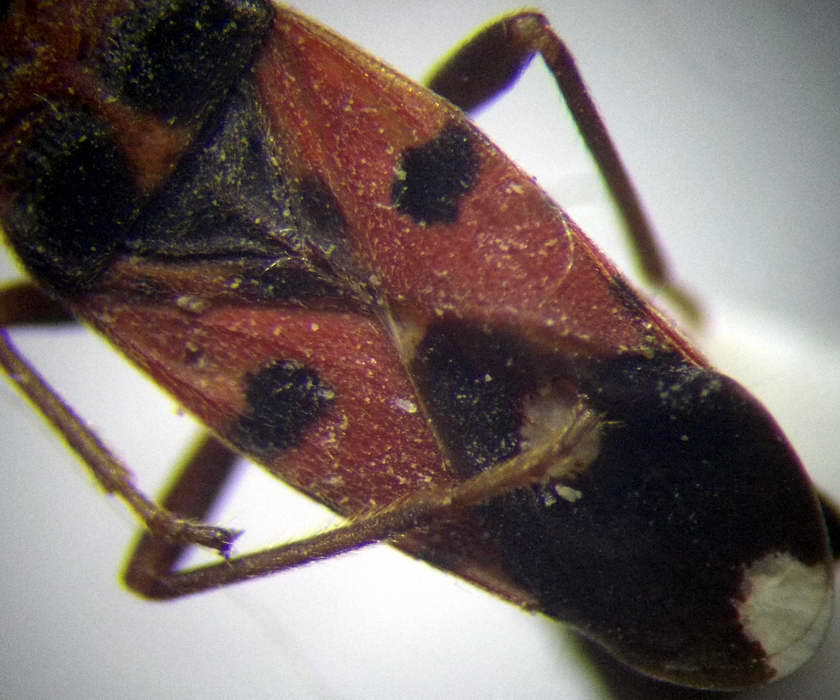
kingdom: Animalia
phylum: Arthropoda
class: Insecta
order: Hemiptera
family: Lygaeidae
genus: Horvathiolus
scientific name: Horvathiolus superbus
